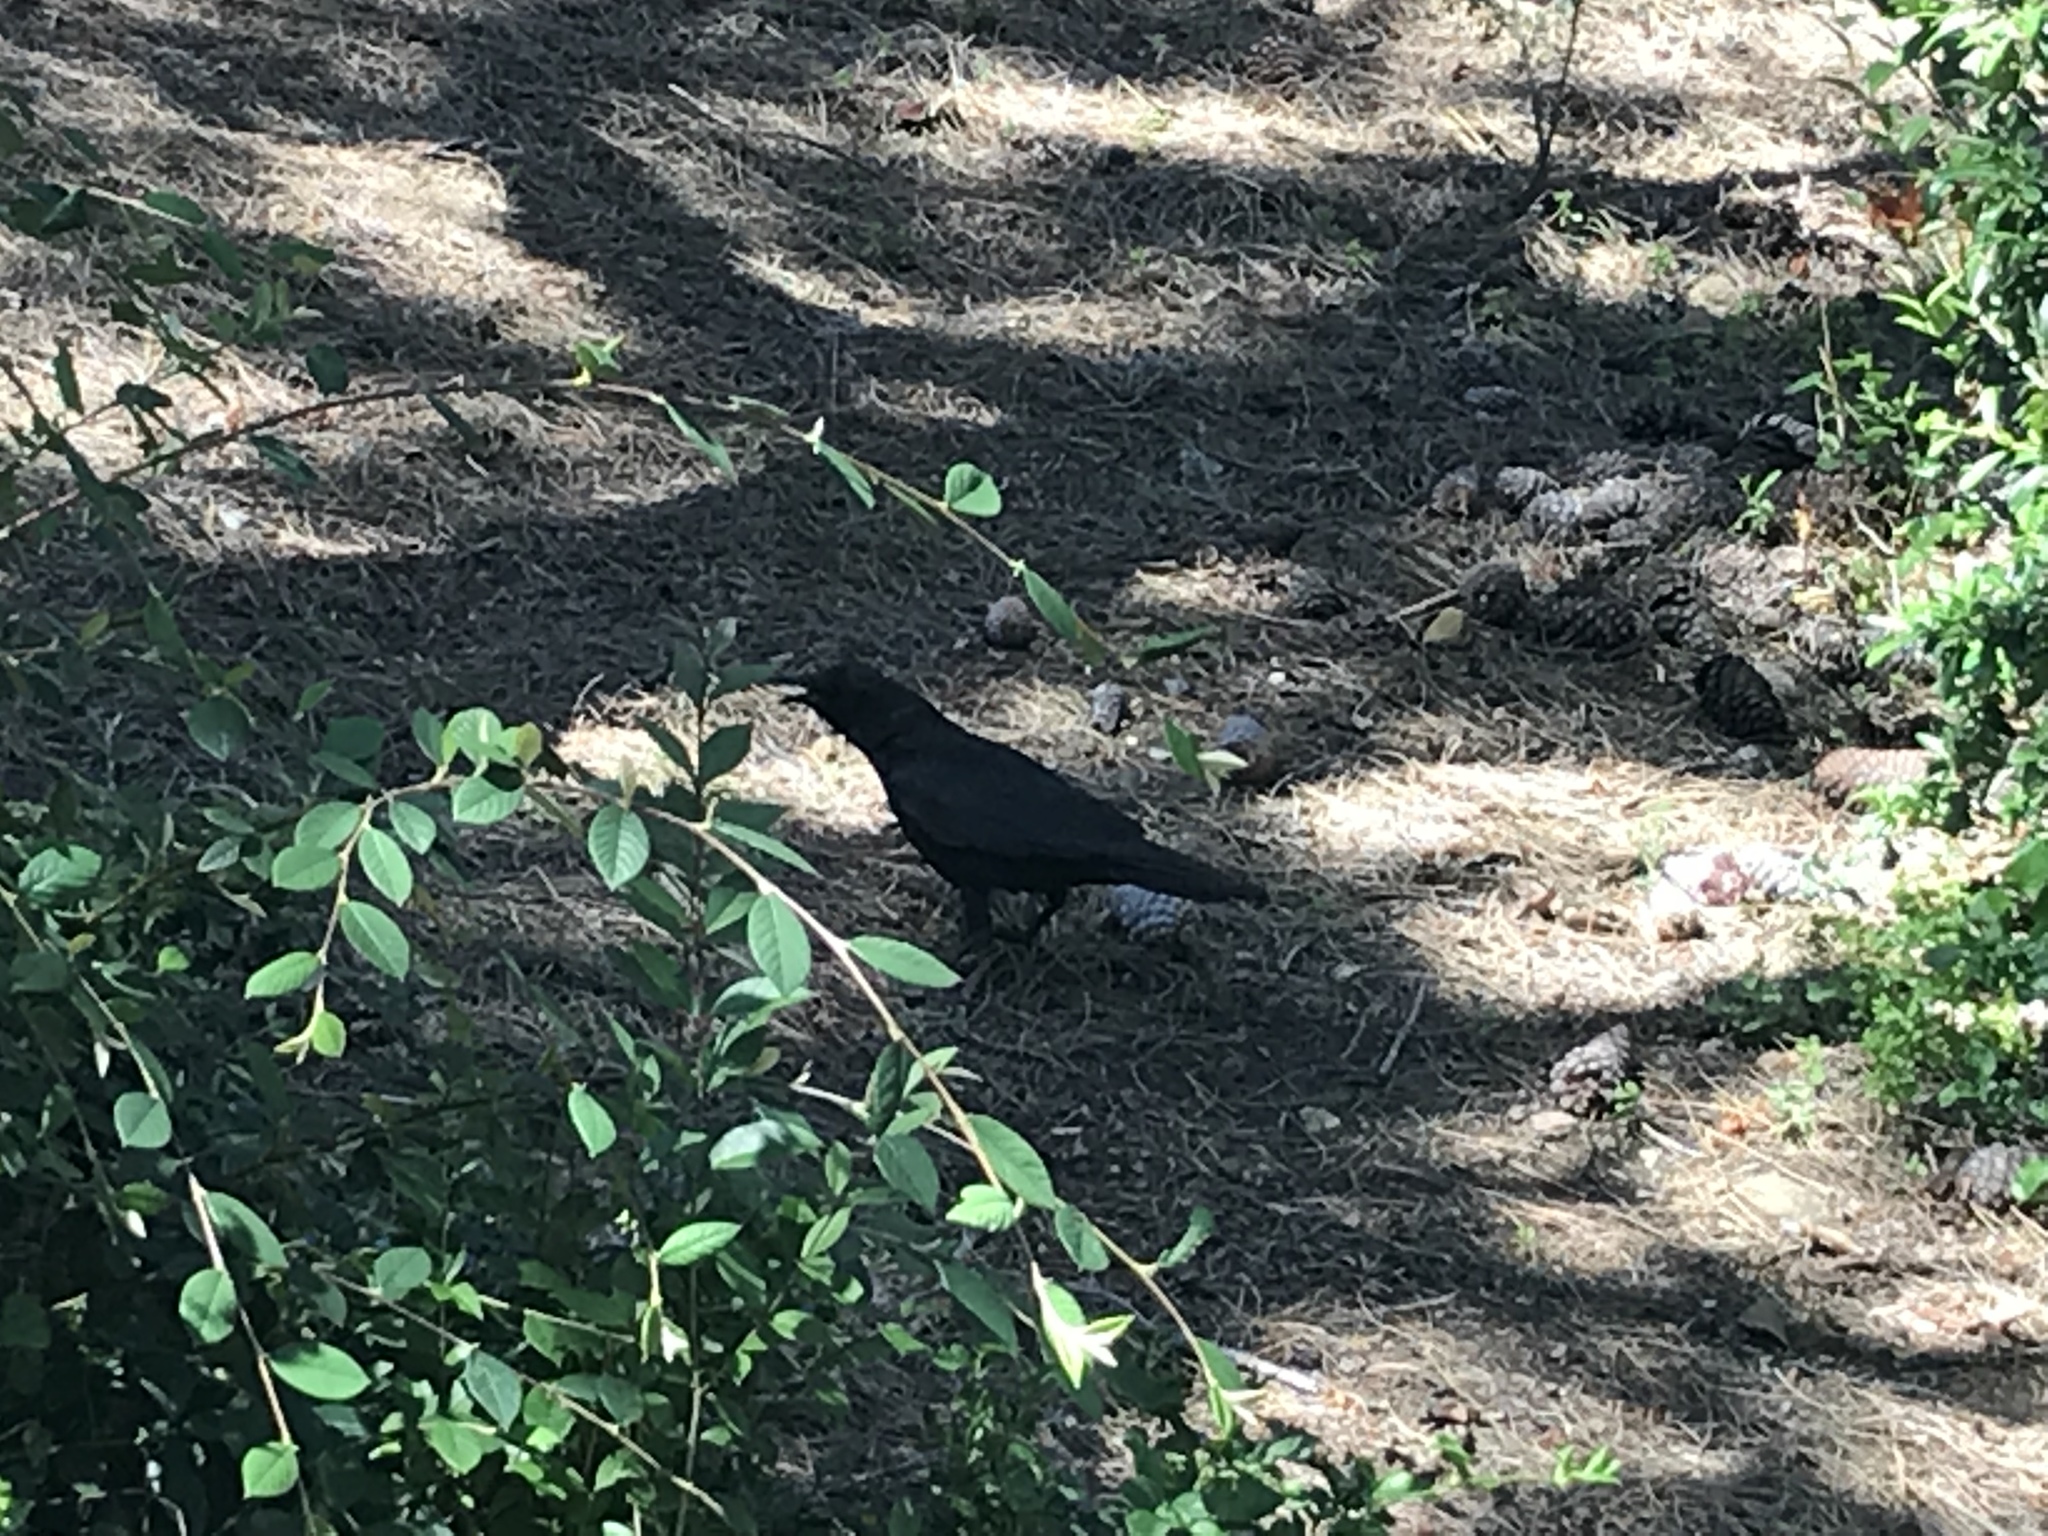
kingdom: Animalia
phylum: Chordata
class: Aves
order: Passeriformes
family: Corvidae
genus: Corvus
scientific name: Corvus brachyrhynchos
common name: American crow
